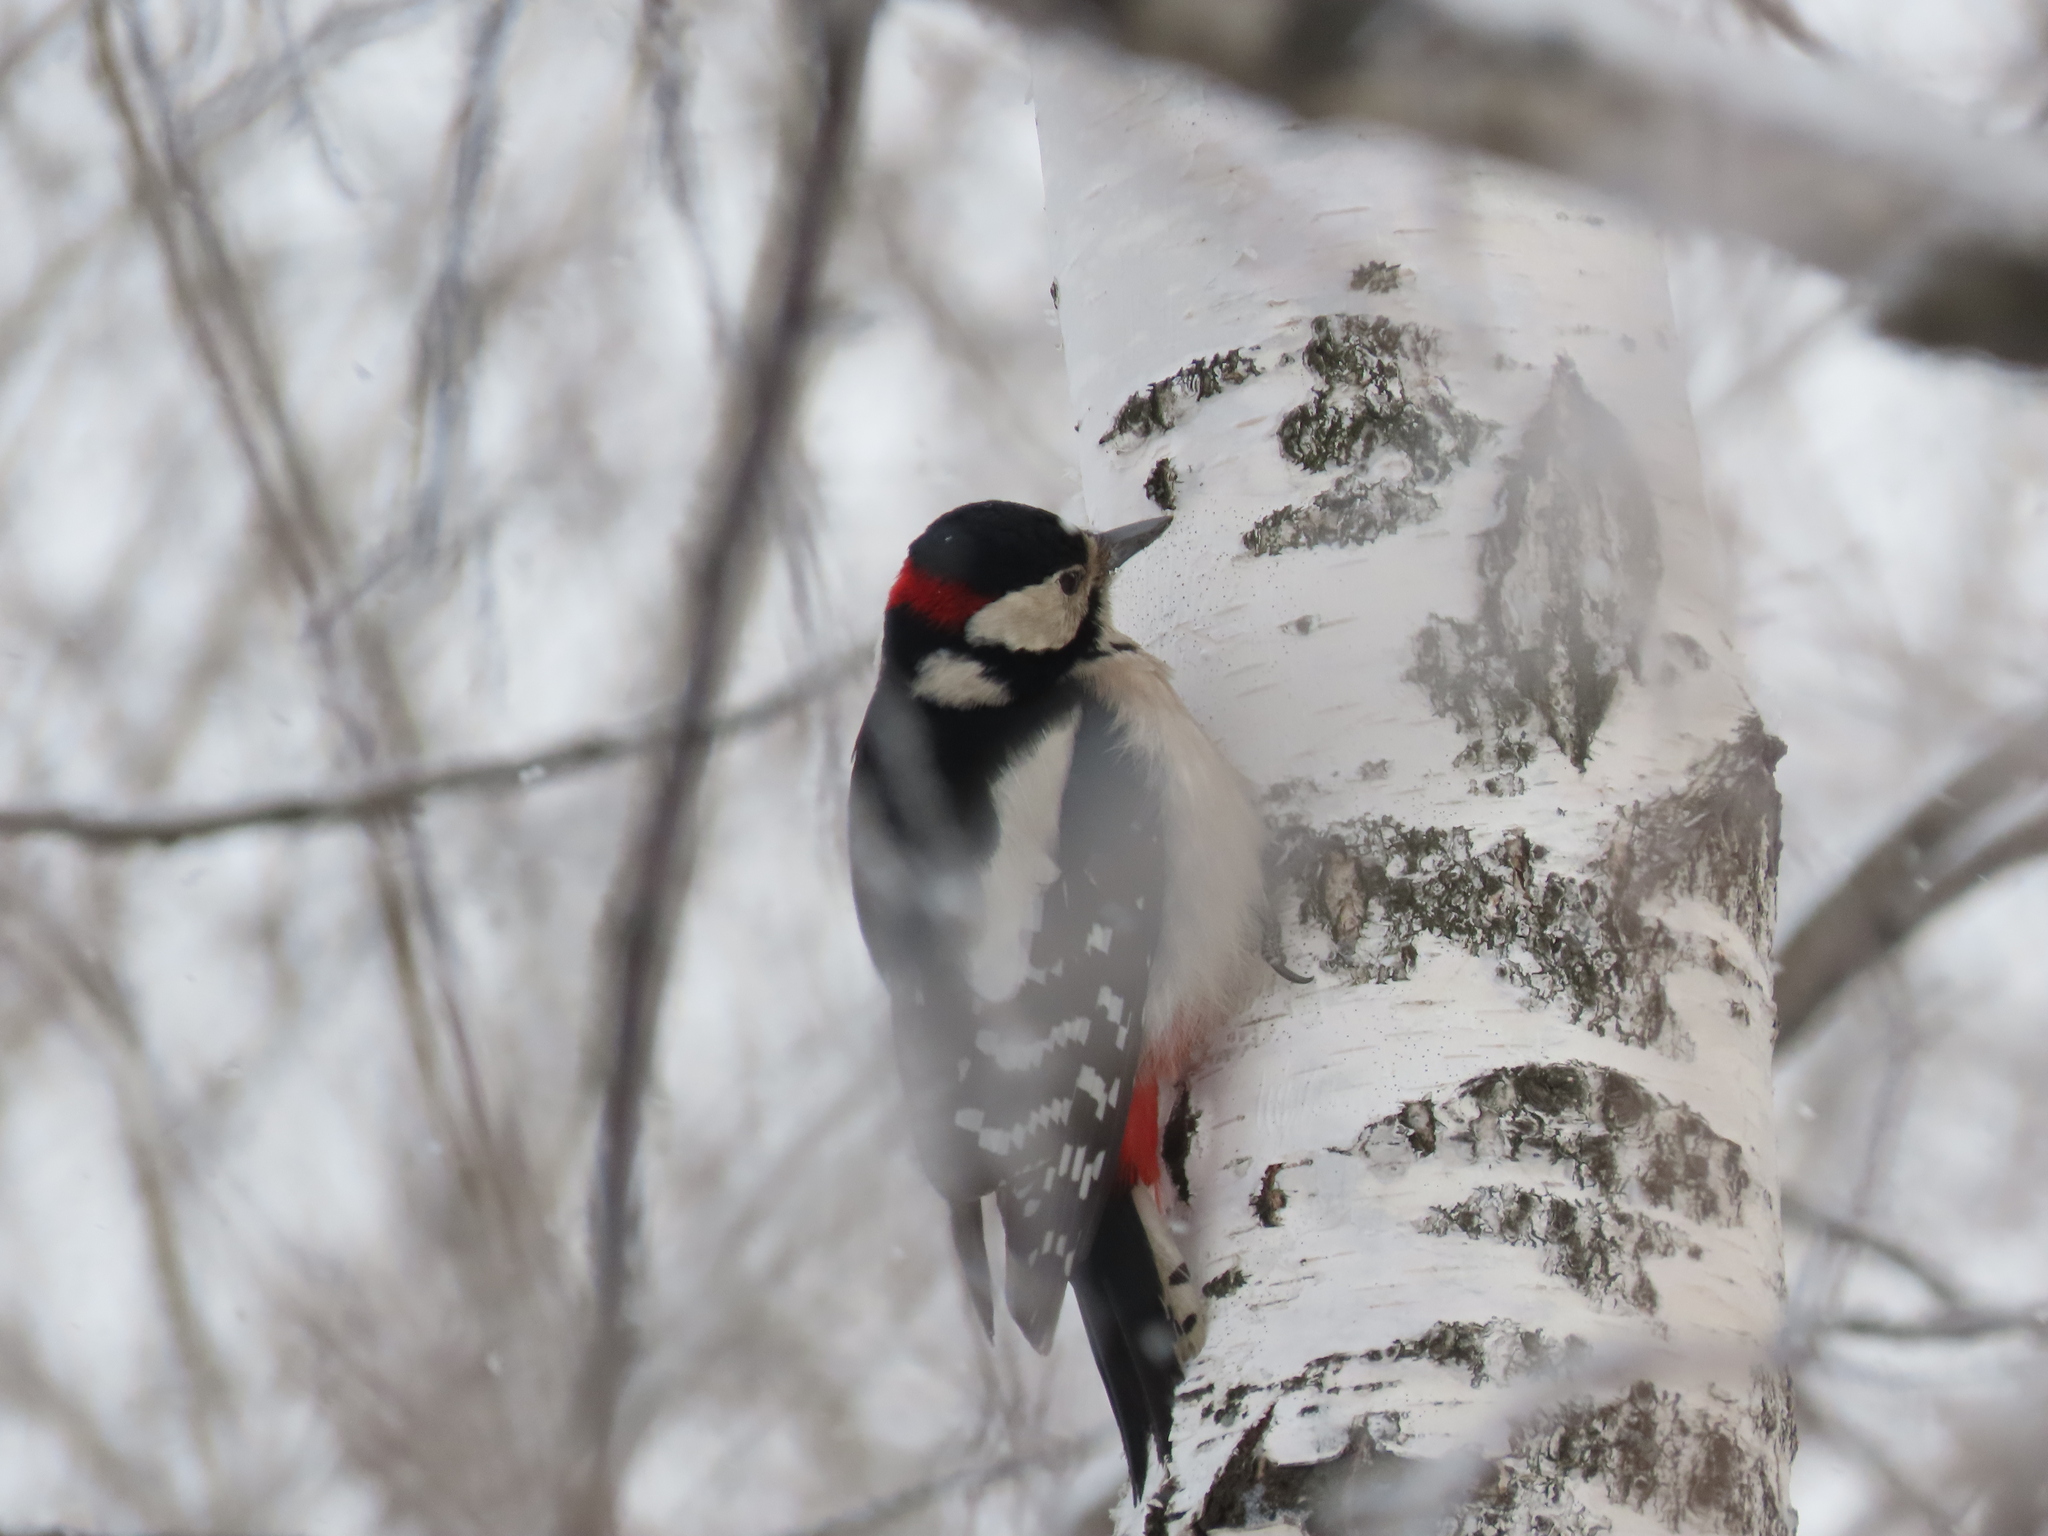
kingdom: Animalia
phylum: Chordata
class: Aves
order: Piciformes
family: Picidae
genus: Dendrocopos
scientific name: Dendrocopos major
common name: Great spotted woodpecker
